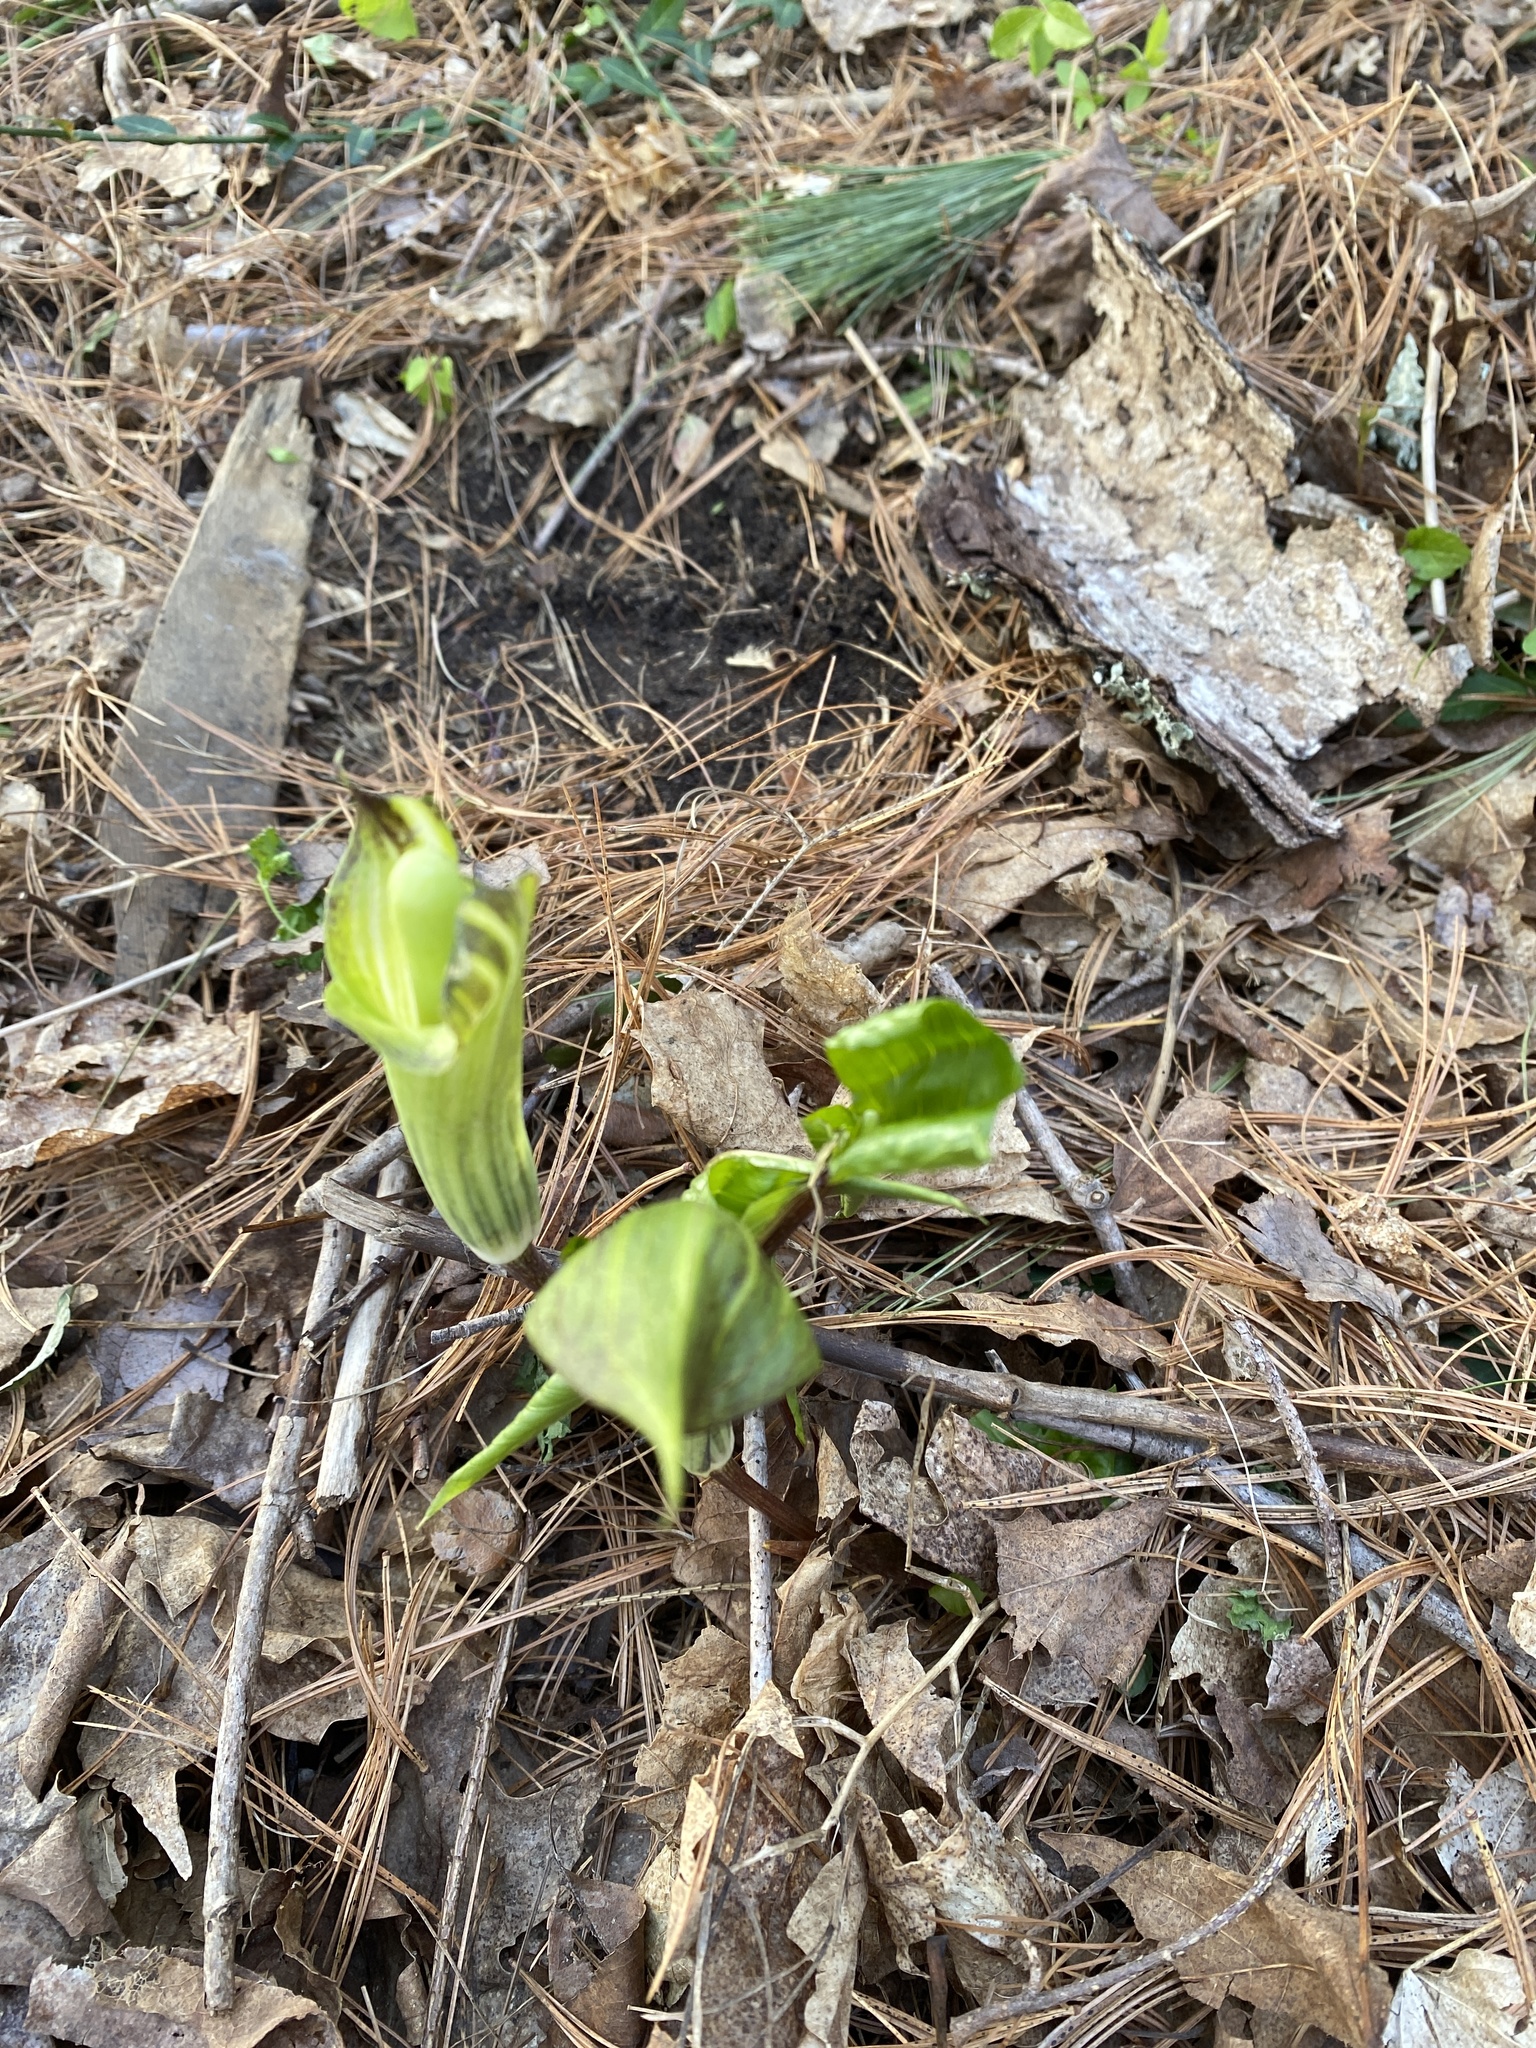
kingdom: Plantae
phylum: Tracheophyta
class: Liliopsida
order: Alismatales
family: Araceae
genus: Arisaema
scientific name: Arisaema triphyllum
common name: Jack-in-the-pulpit
